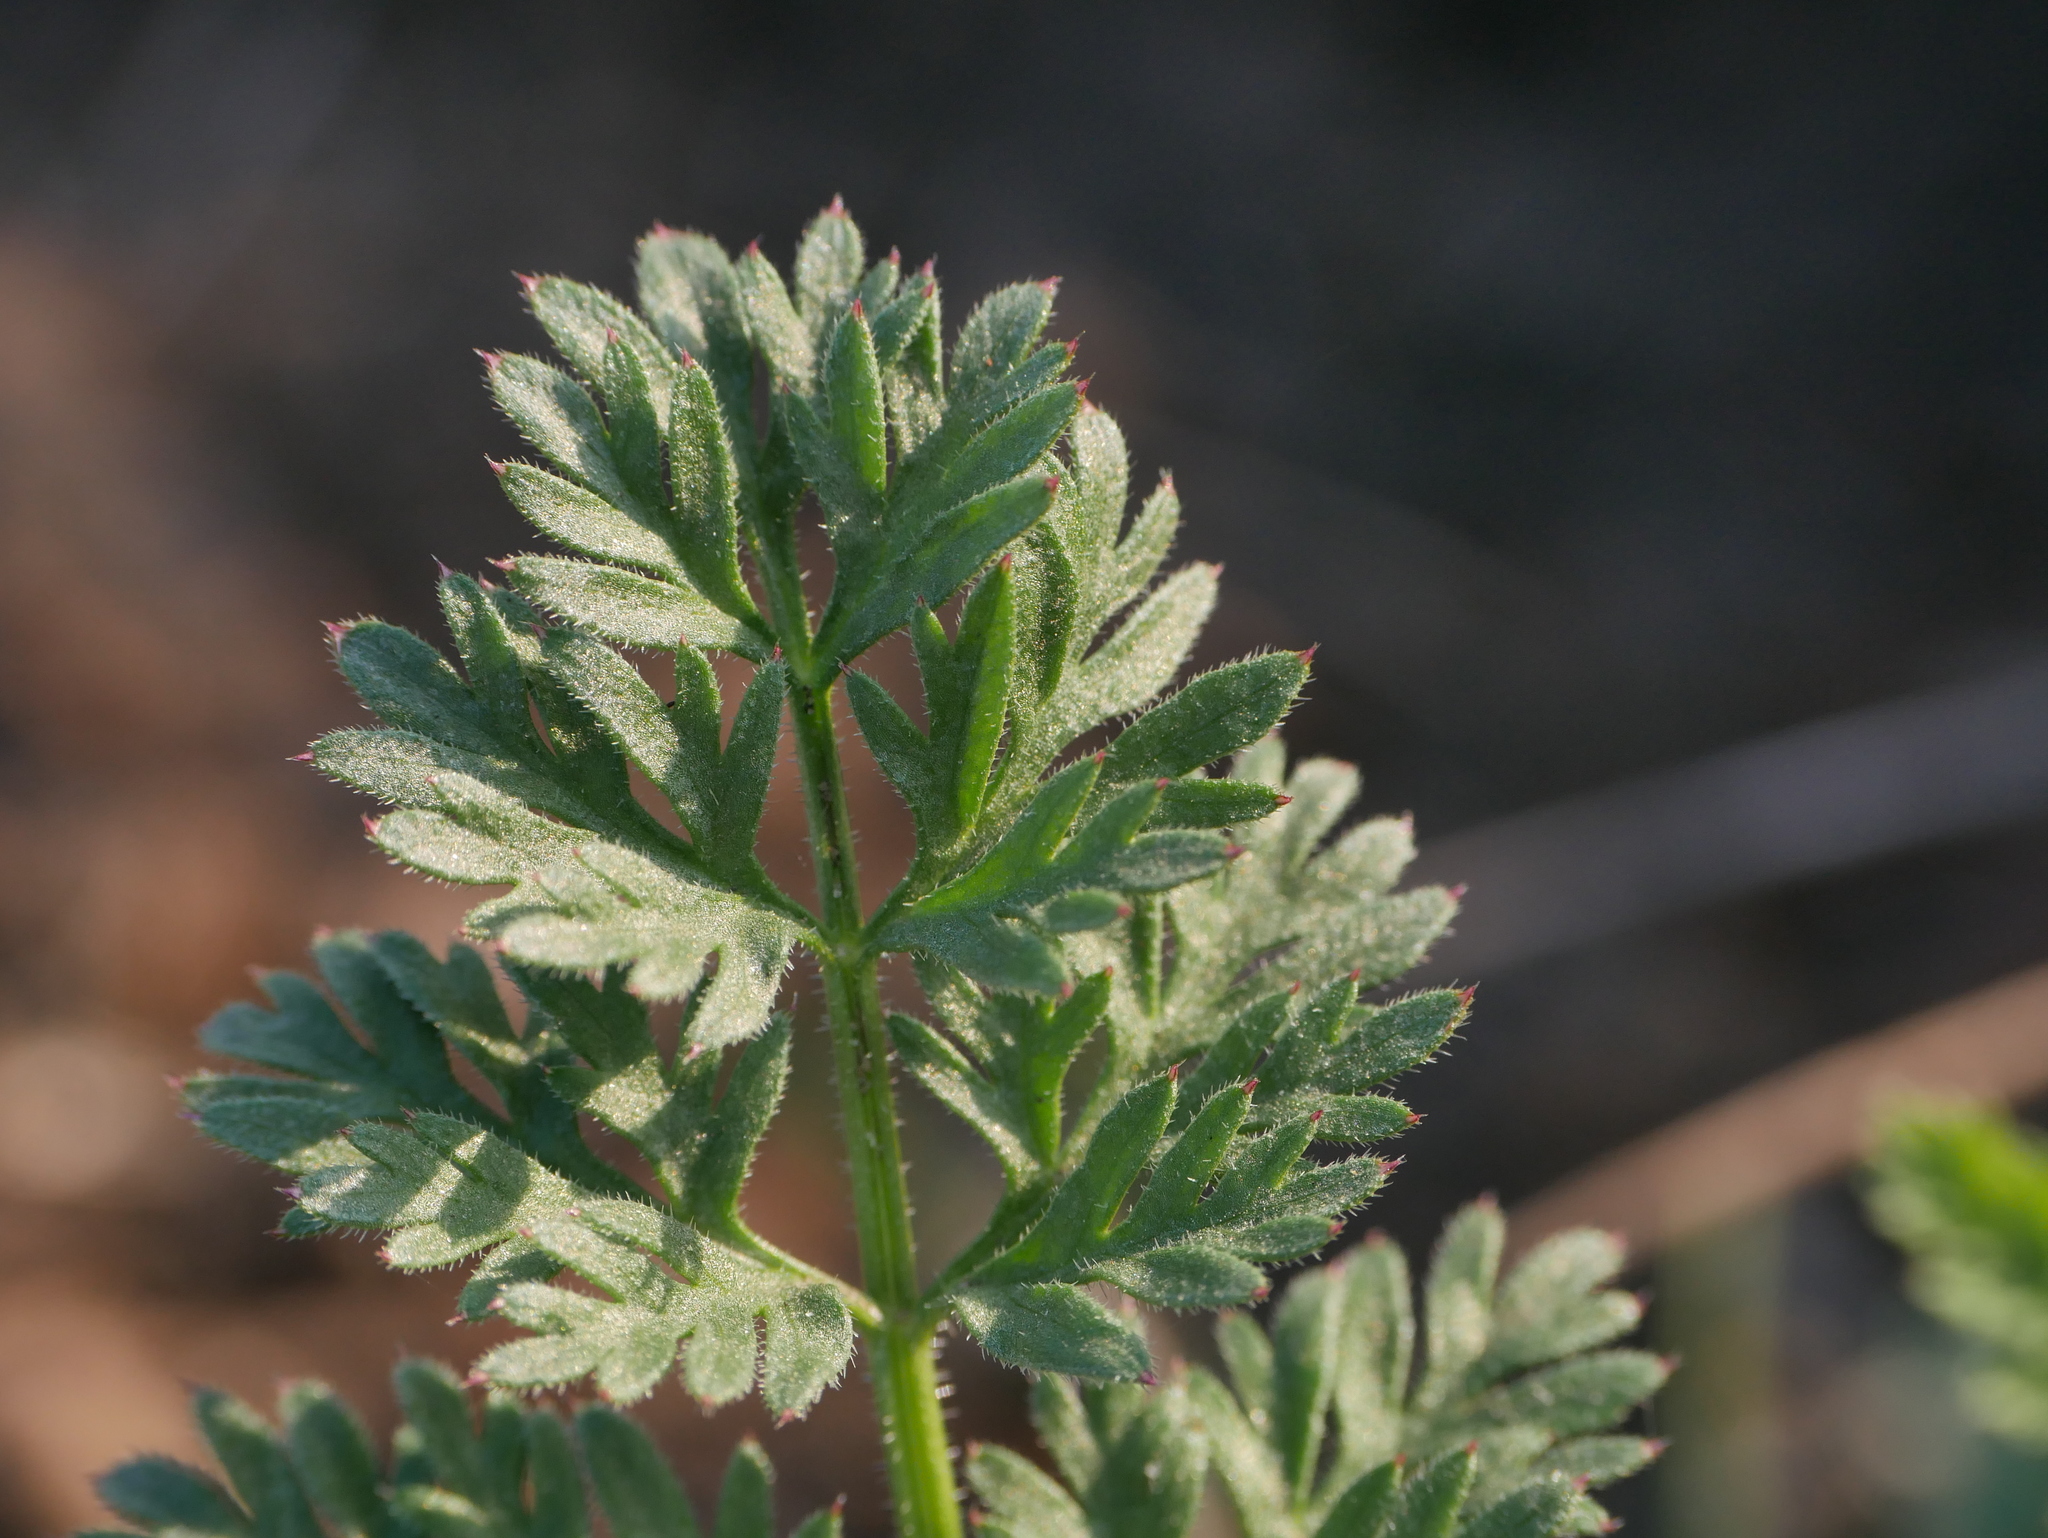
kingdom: Plantae
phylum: Tracheophyta
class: Magnoliopsida
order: Geraniales
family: Geraniaceae
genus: Erodium
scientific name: Erodium cicutarium
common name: Common stork's-bill
